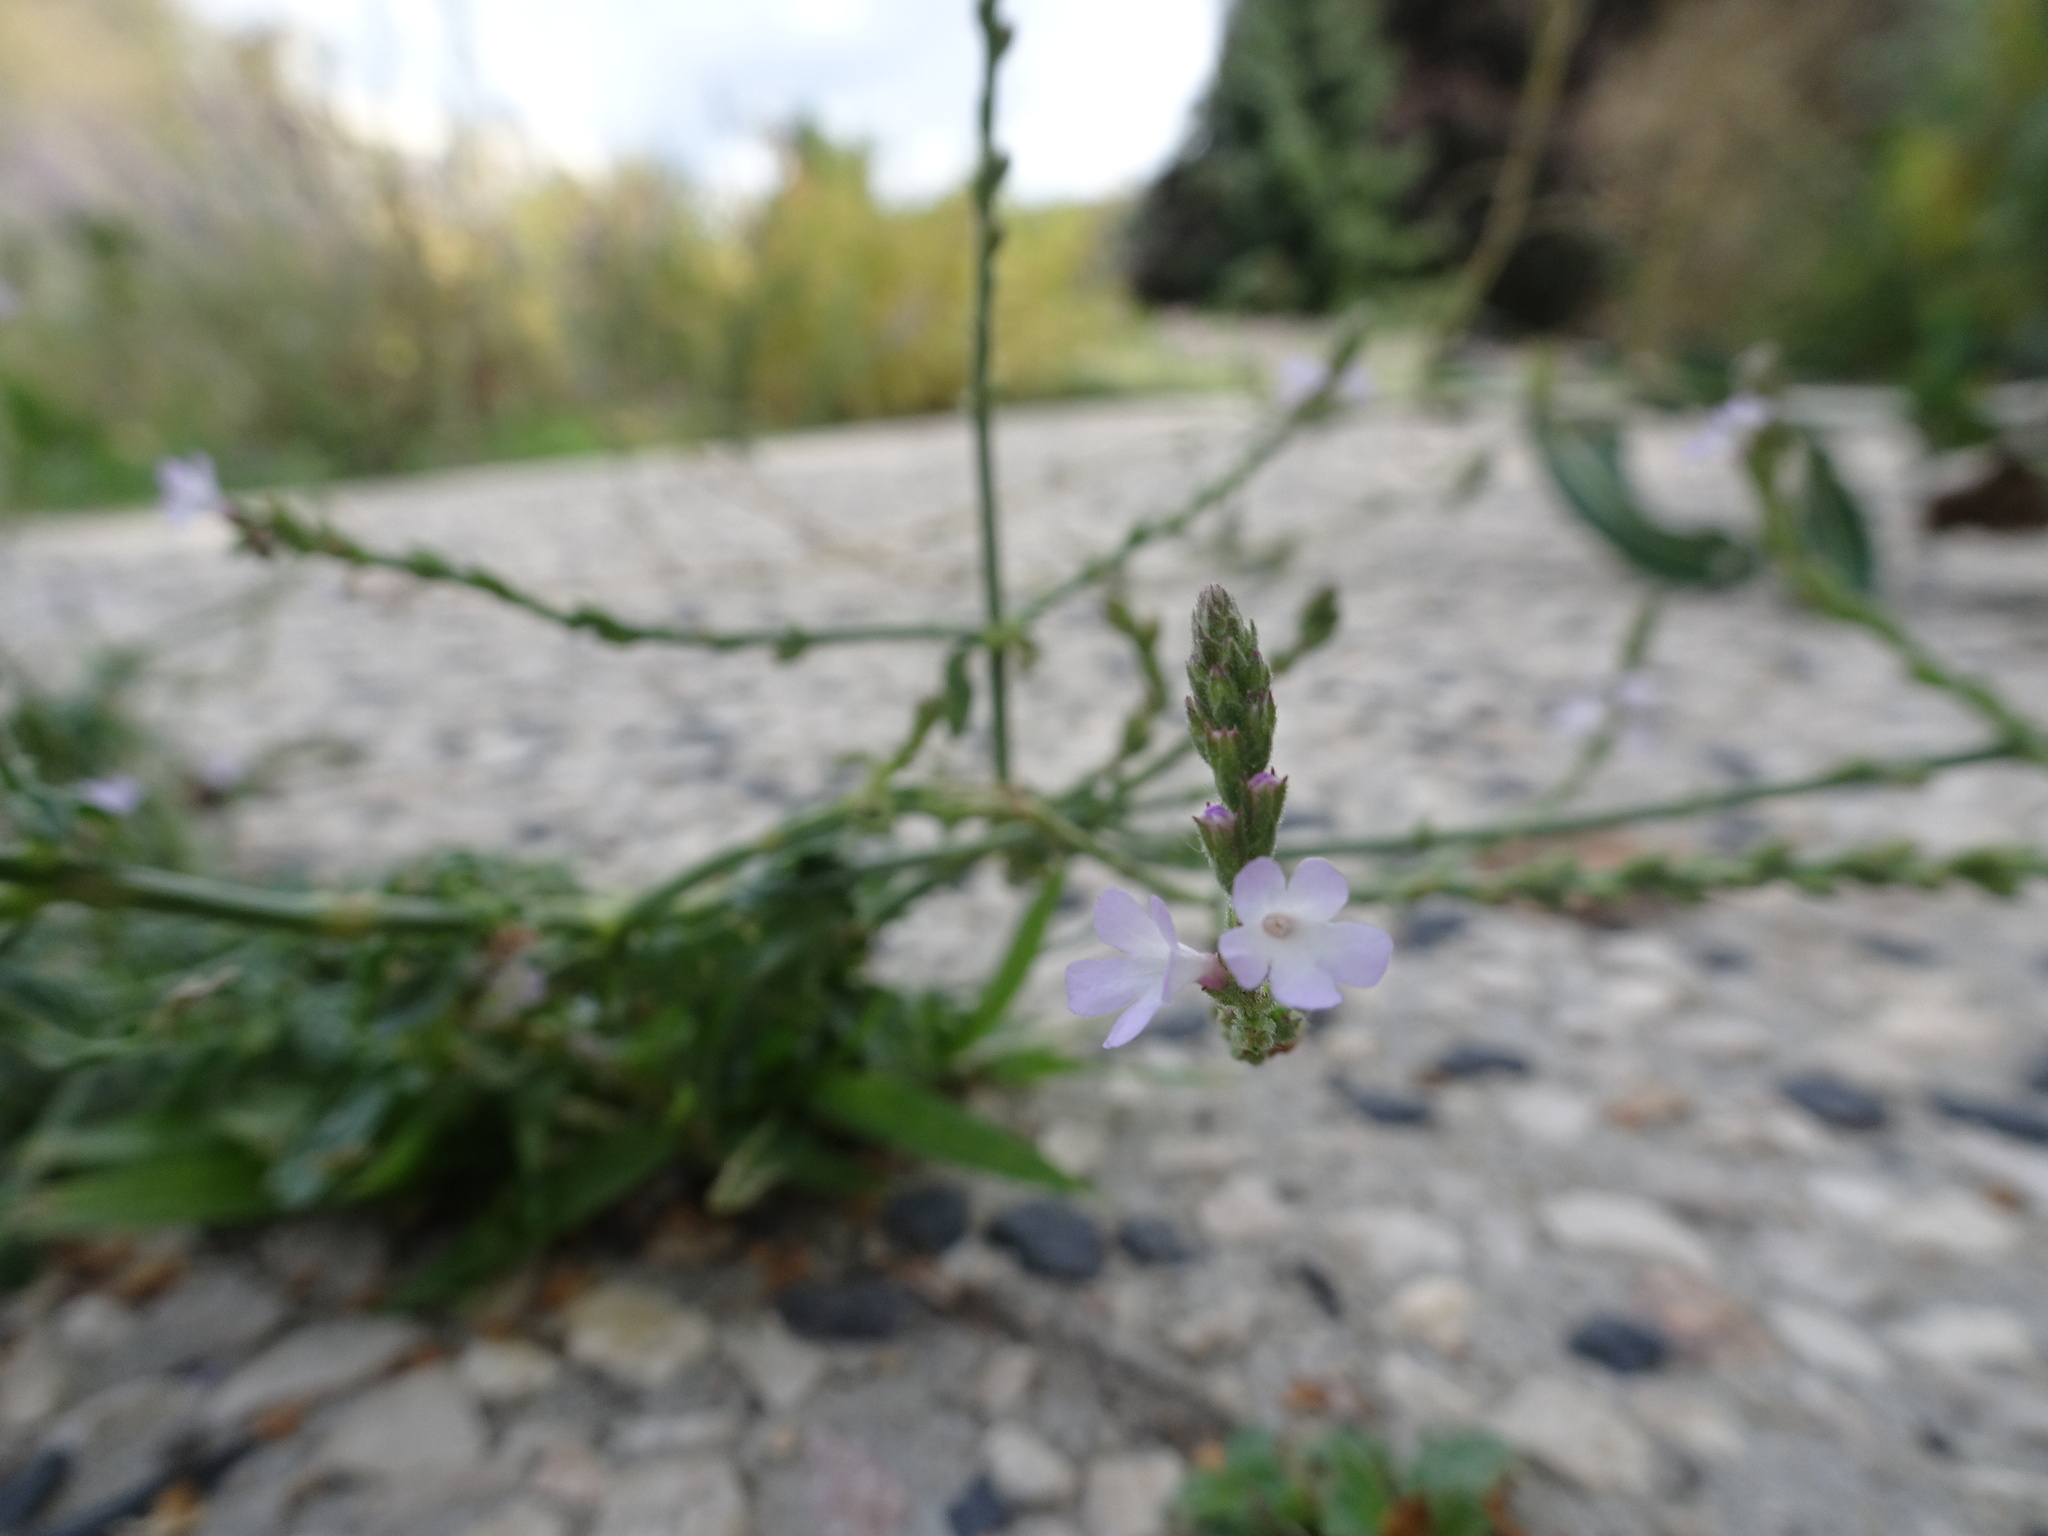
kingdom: Plantae
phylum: Tracheophyta
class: Magnoliopsida
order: Lamiales
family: Verbenaceae
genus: Verbena
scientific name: Verbena officinalis
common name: Vervain
